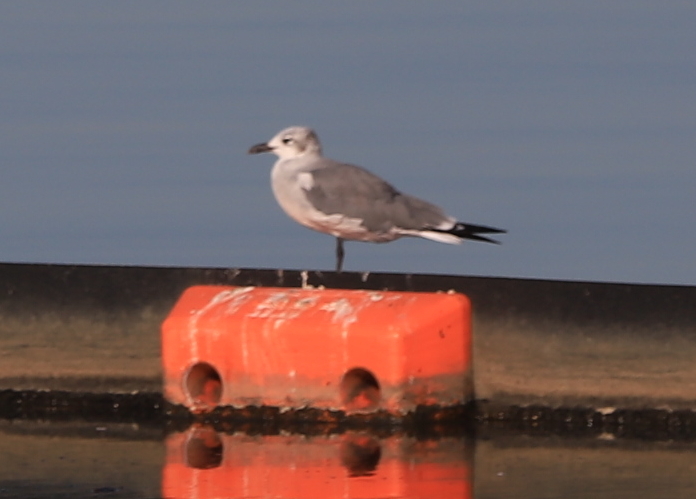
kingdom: Animalia
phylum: Chordata
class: Aves
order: Charadriiformes
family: Laridae
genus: Leucophaeus
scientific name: Leucophaeus atricilla
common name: Laughing gull
